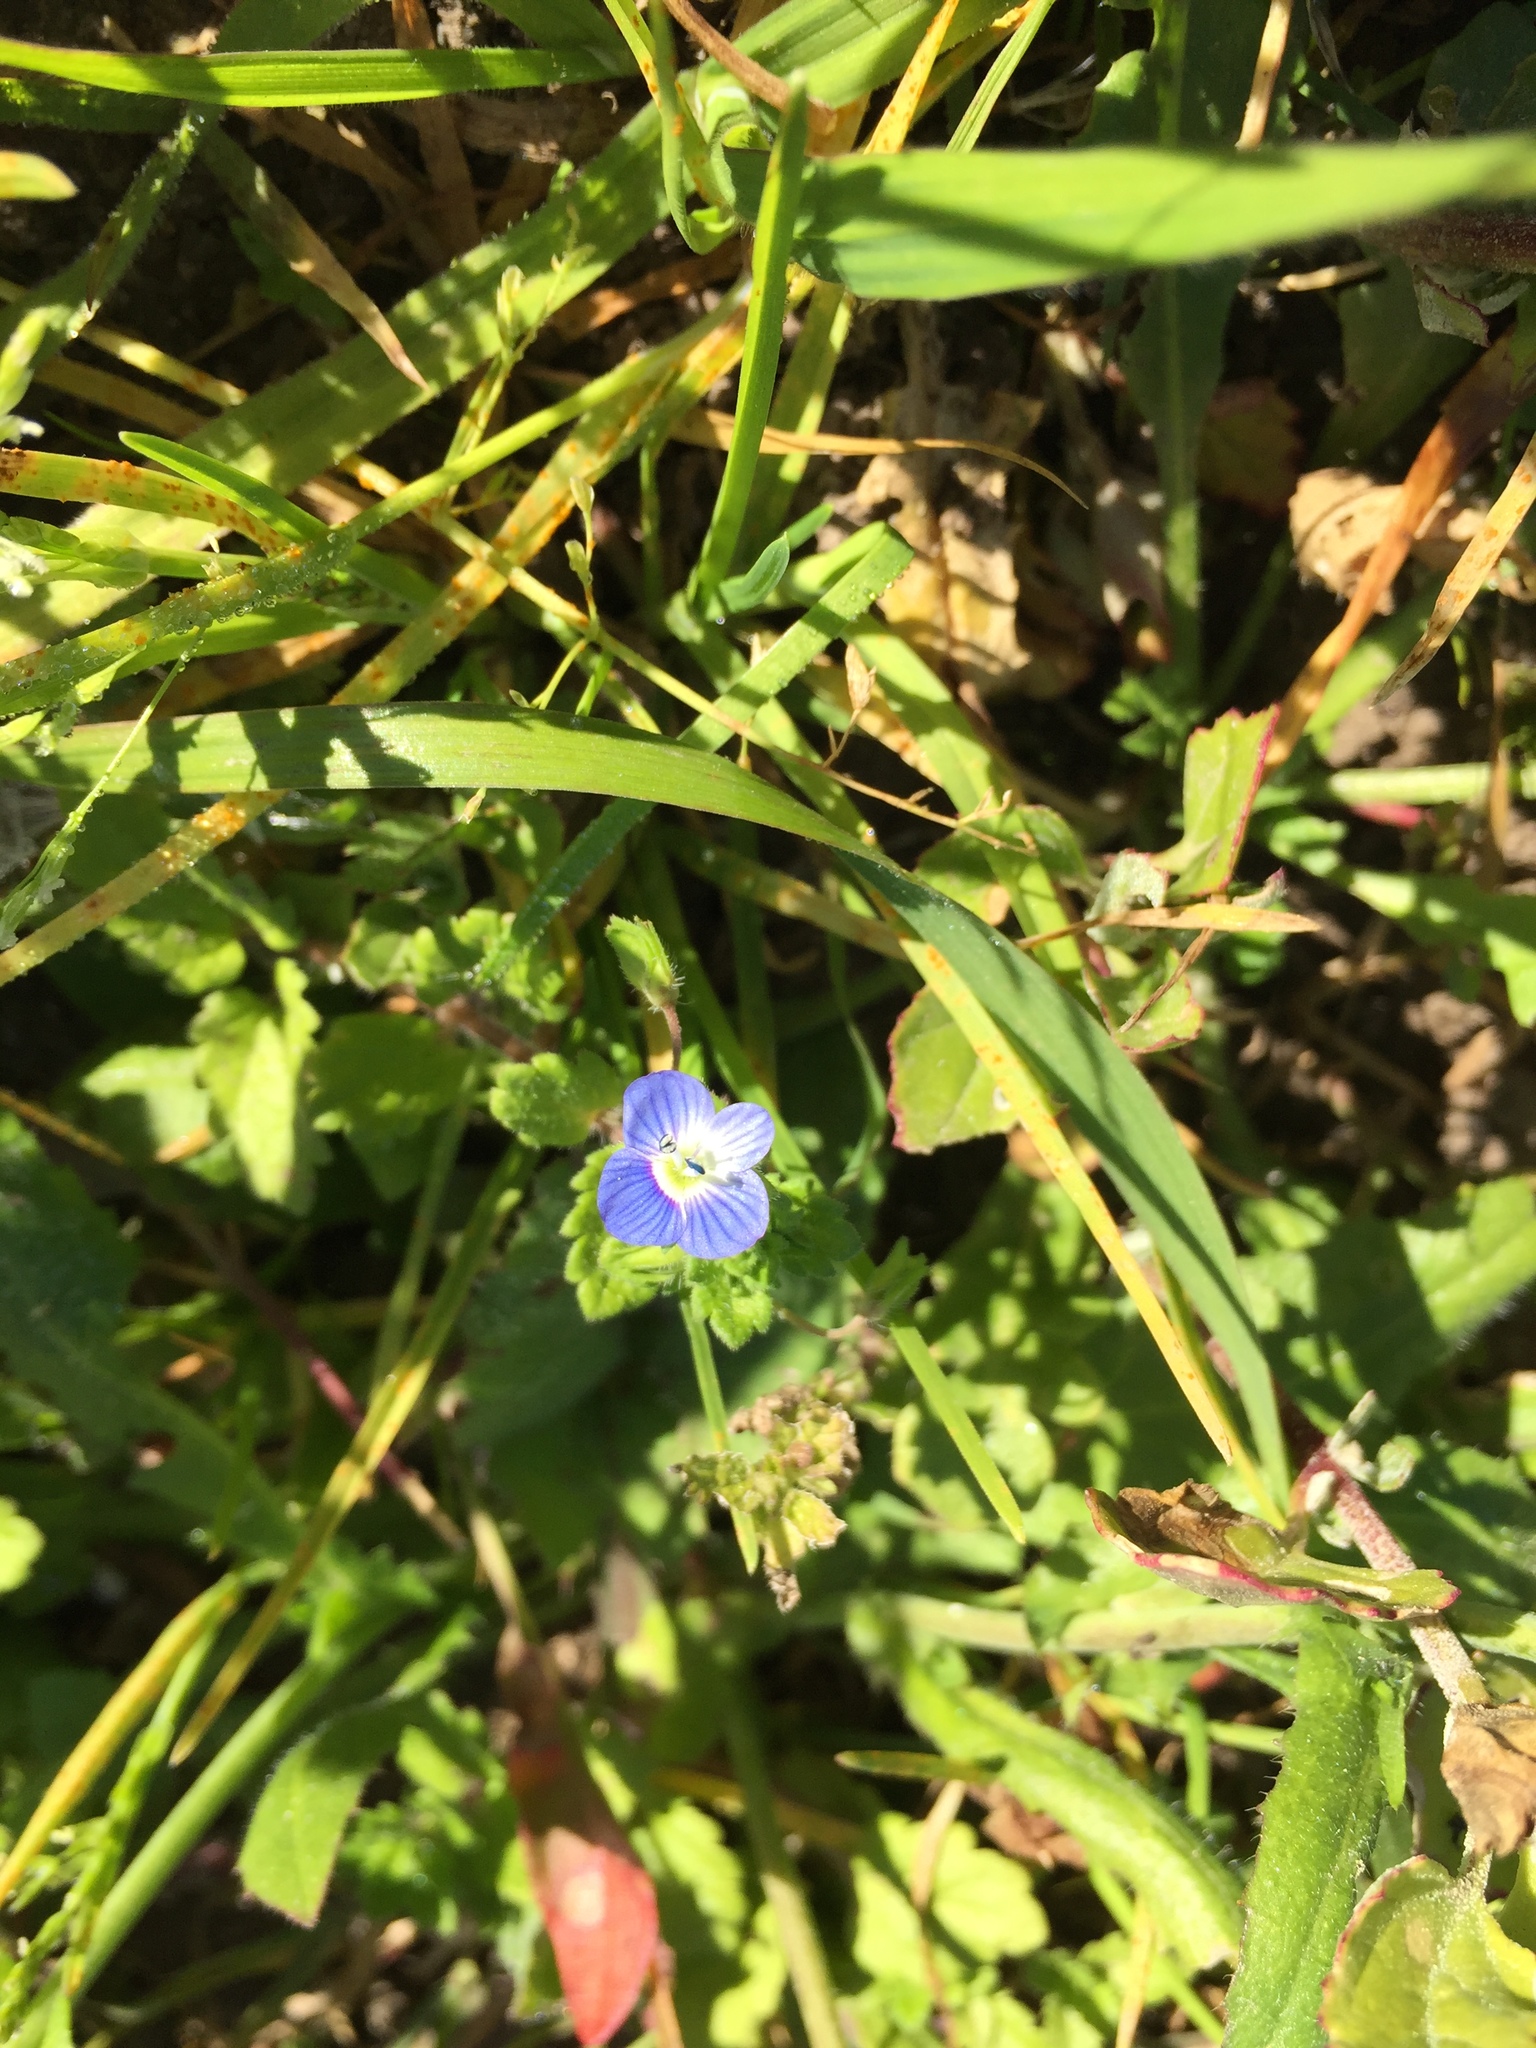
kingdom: Plantae
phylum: Tracheophyta
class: Magnoliopsida
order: Lamiales
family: Plantaginaceae
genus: Veronica
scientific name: Veronica persica
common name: Common field-speedwell
